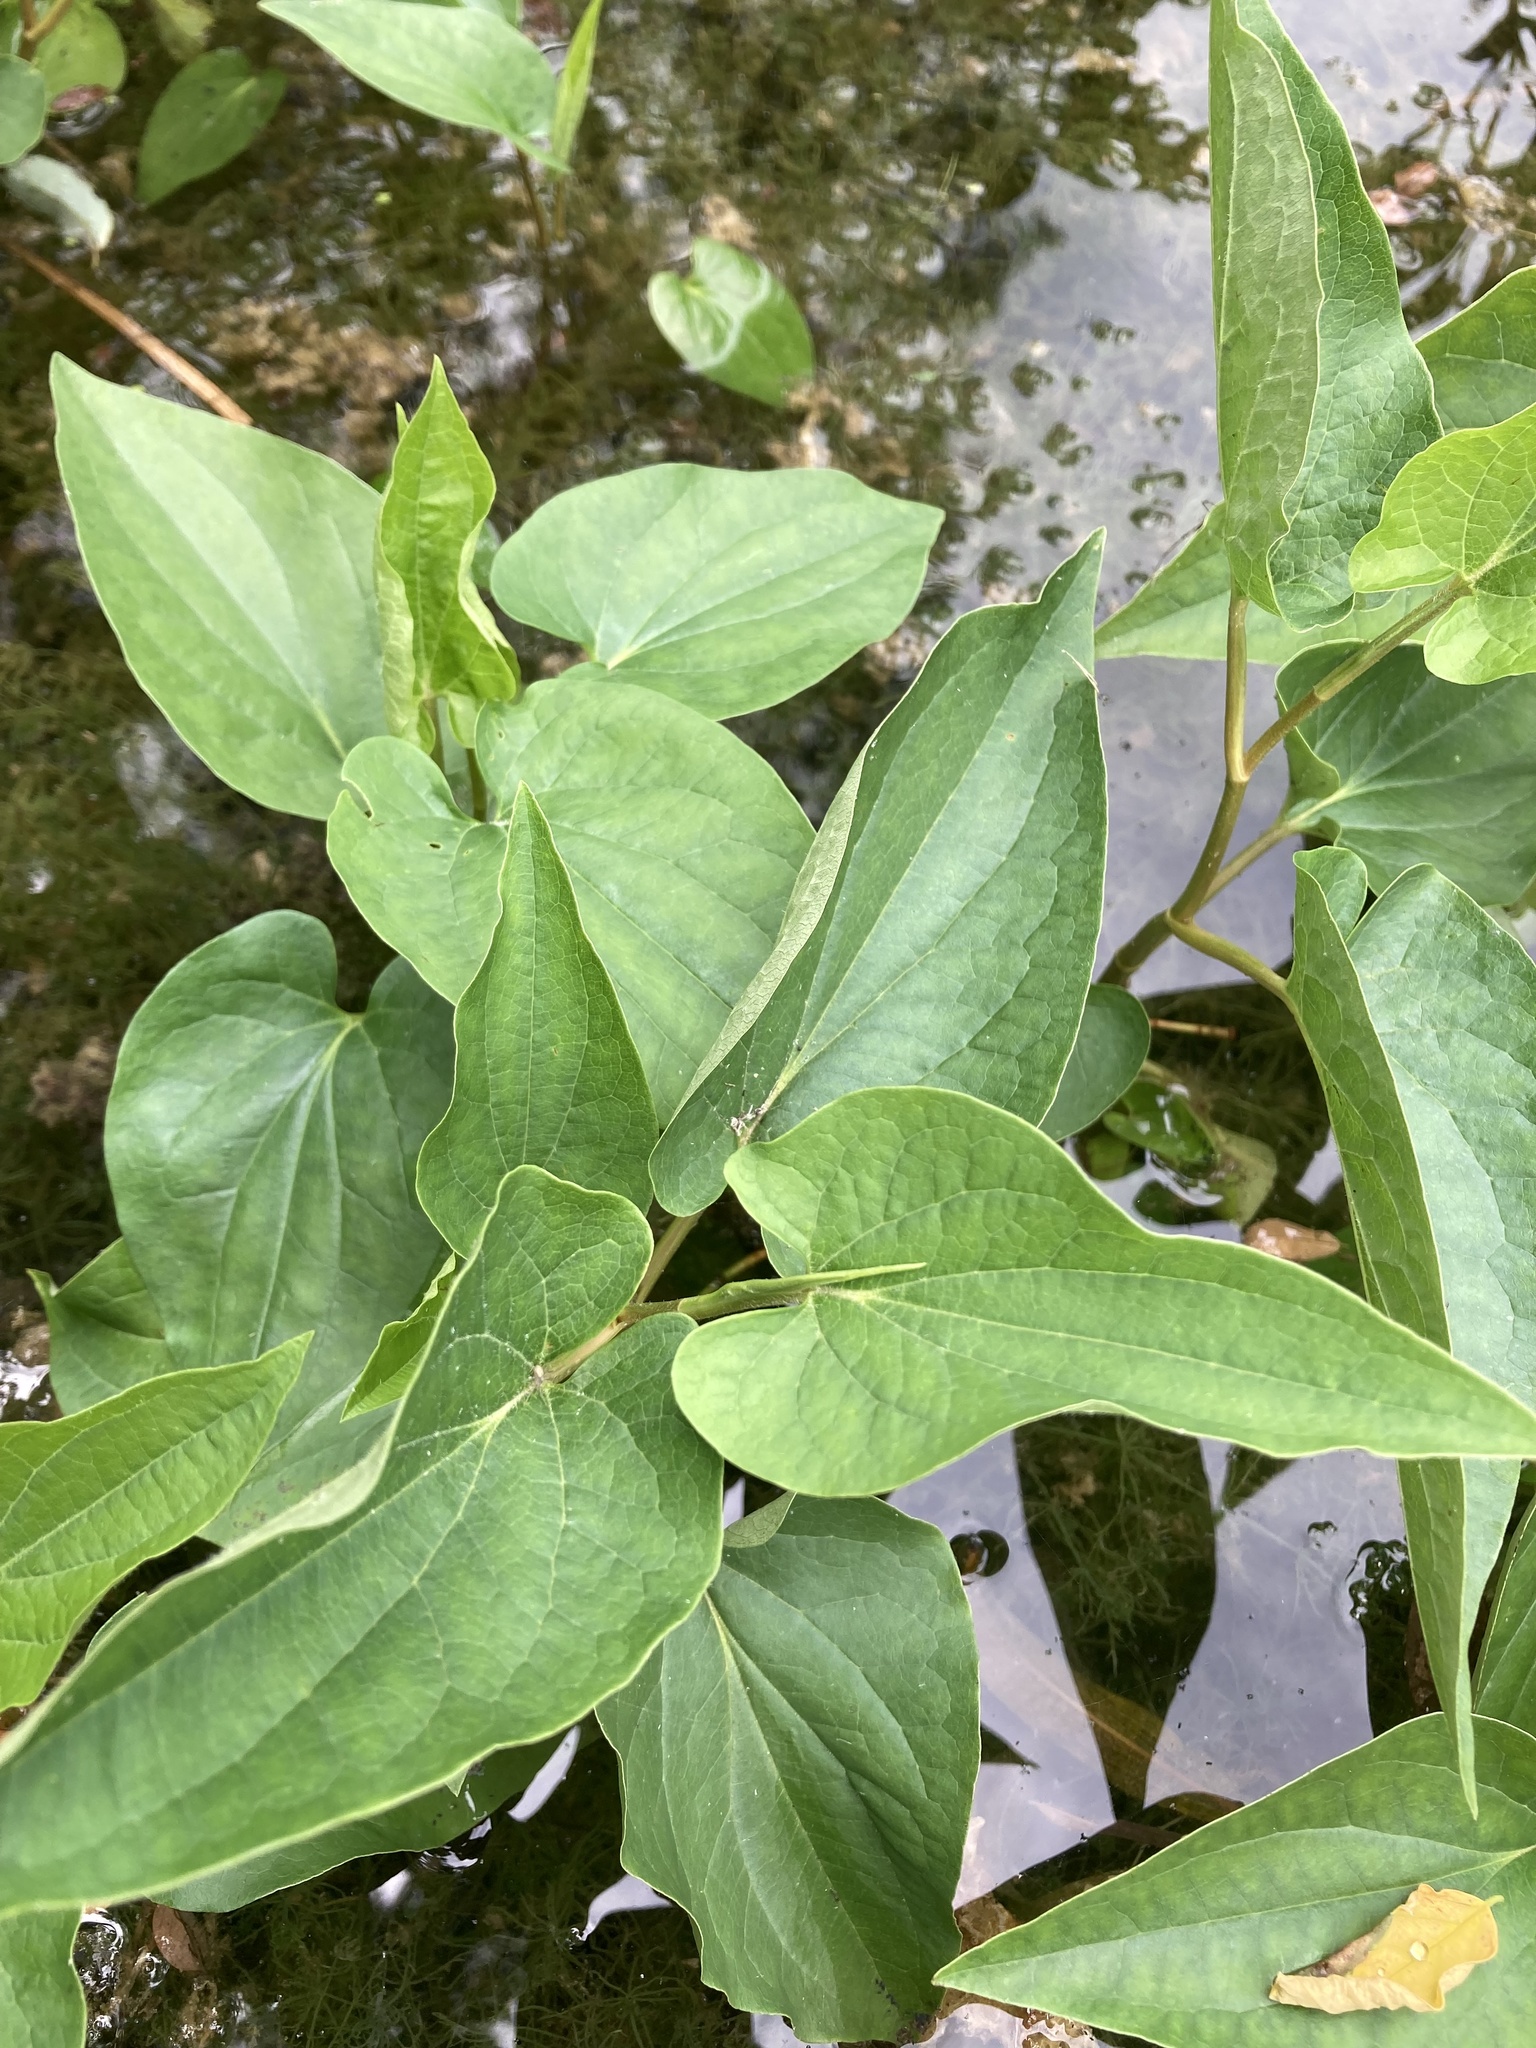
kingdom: Plantae
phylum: Tracheophyta
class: Magnoliopsida
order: Piperales
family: Saururaceae
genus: Saururus
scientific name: Saururus cernuus
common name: Lizard's-tail
